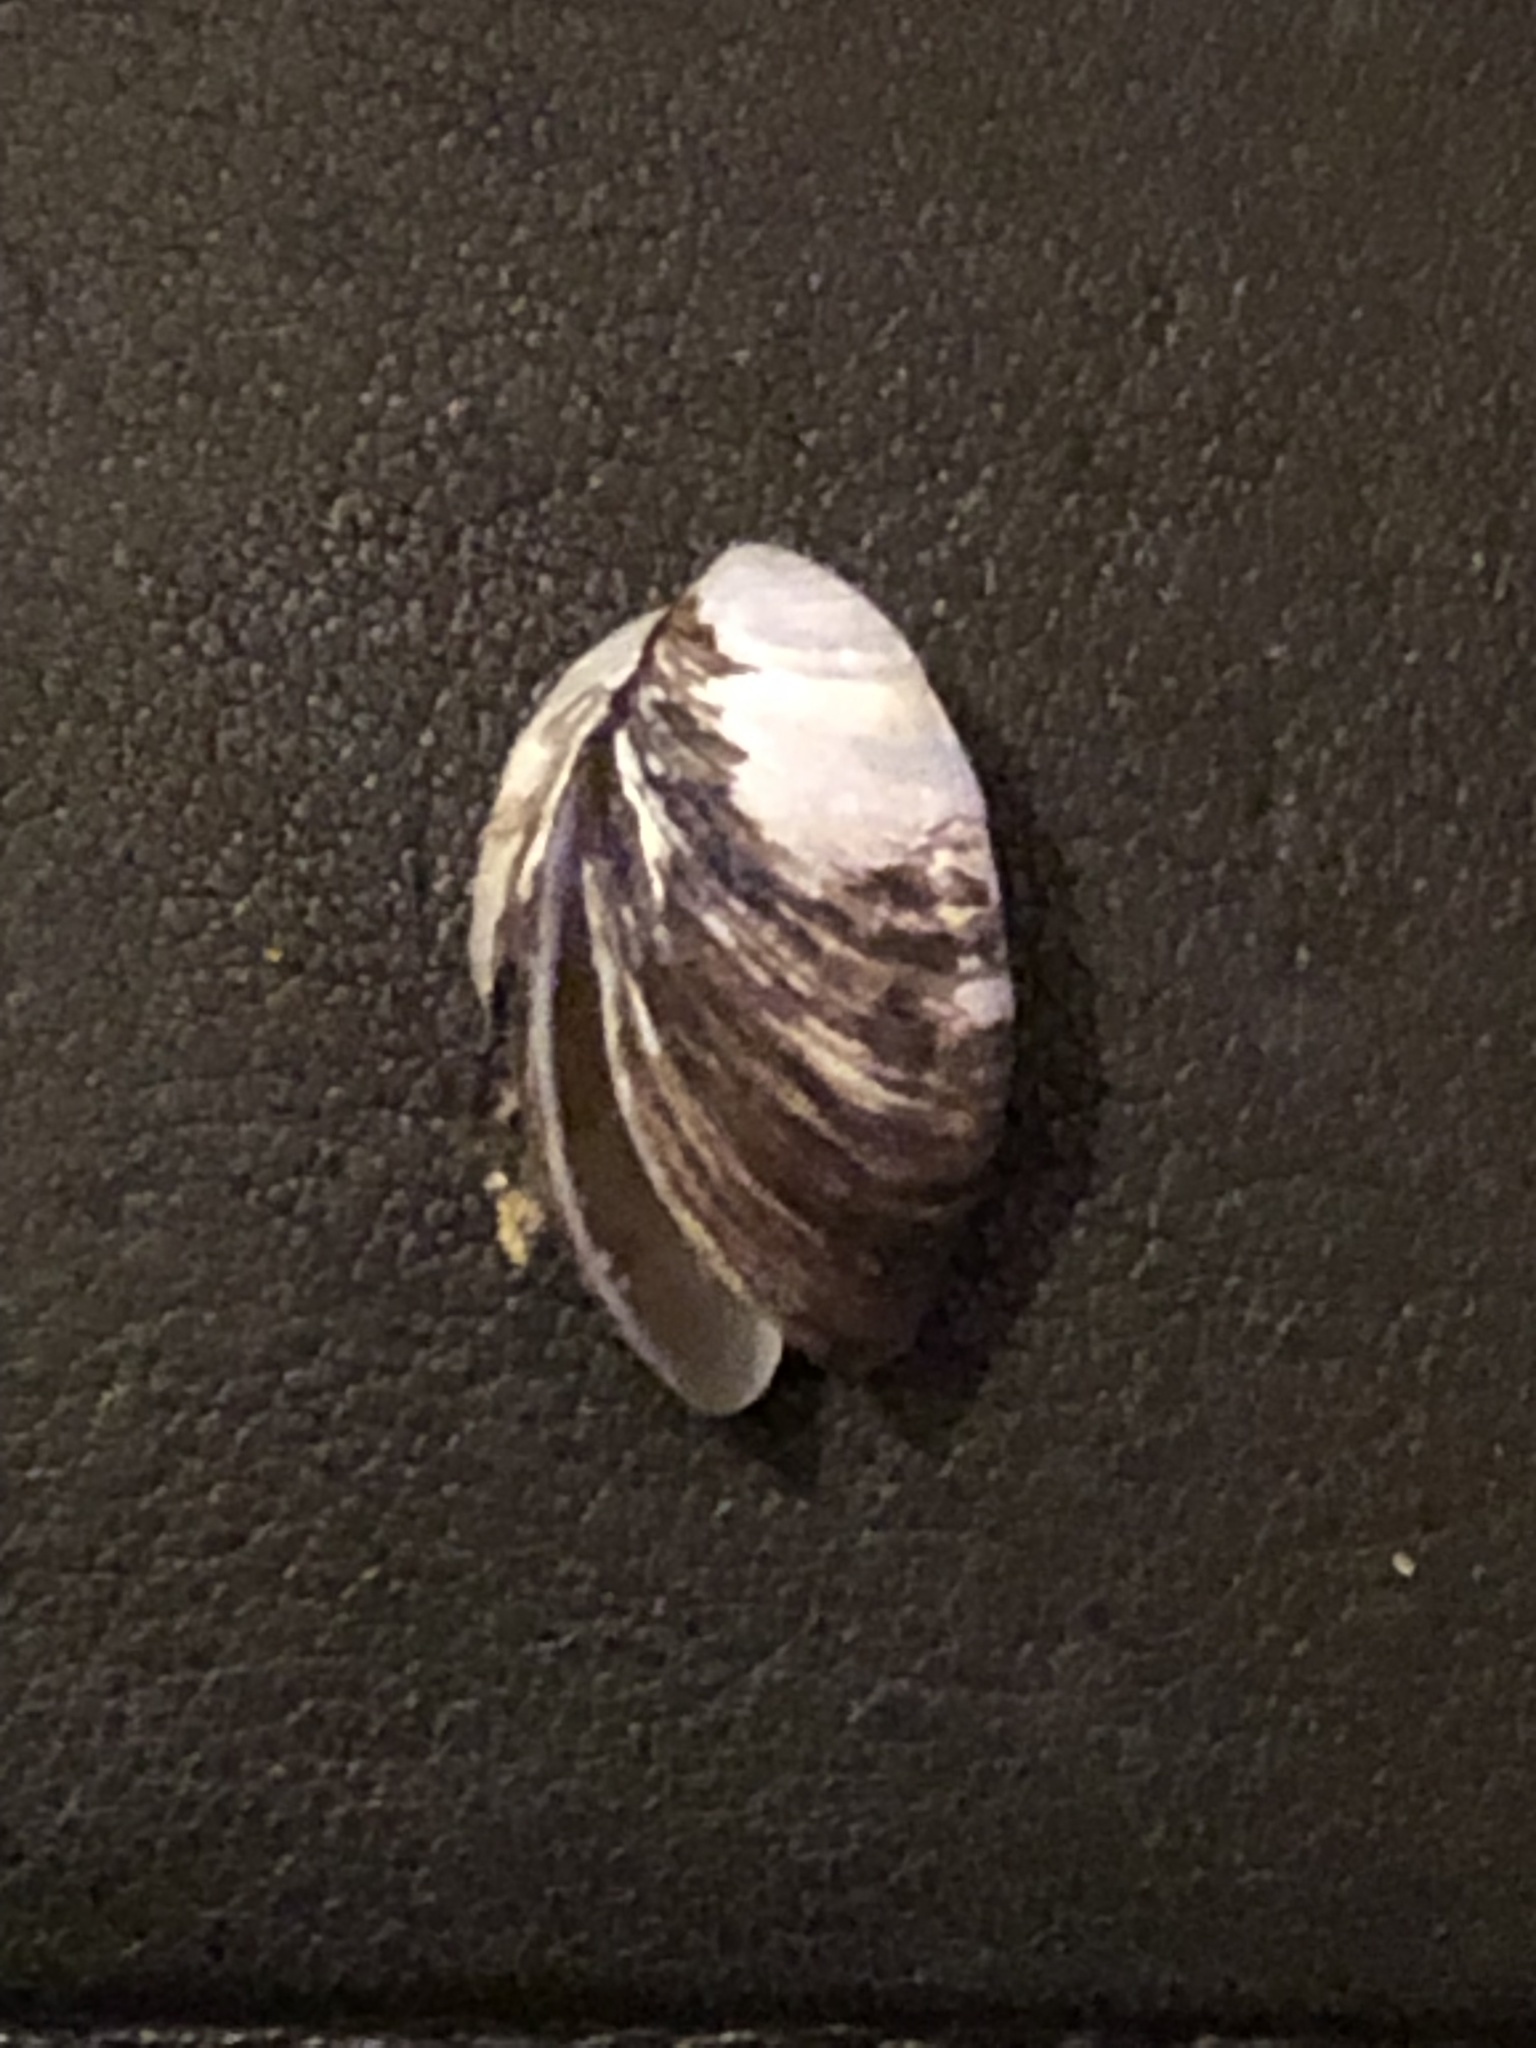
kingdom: Animalia
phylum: Mollusca
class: Bivalvia
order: Myida
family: Dreissenidae
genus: Dreissena
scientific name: Dreissena polymorpha
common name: Zebra mussel
